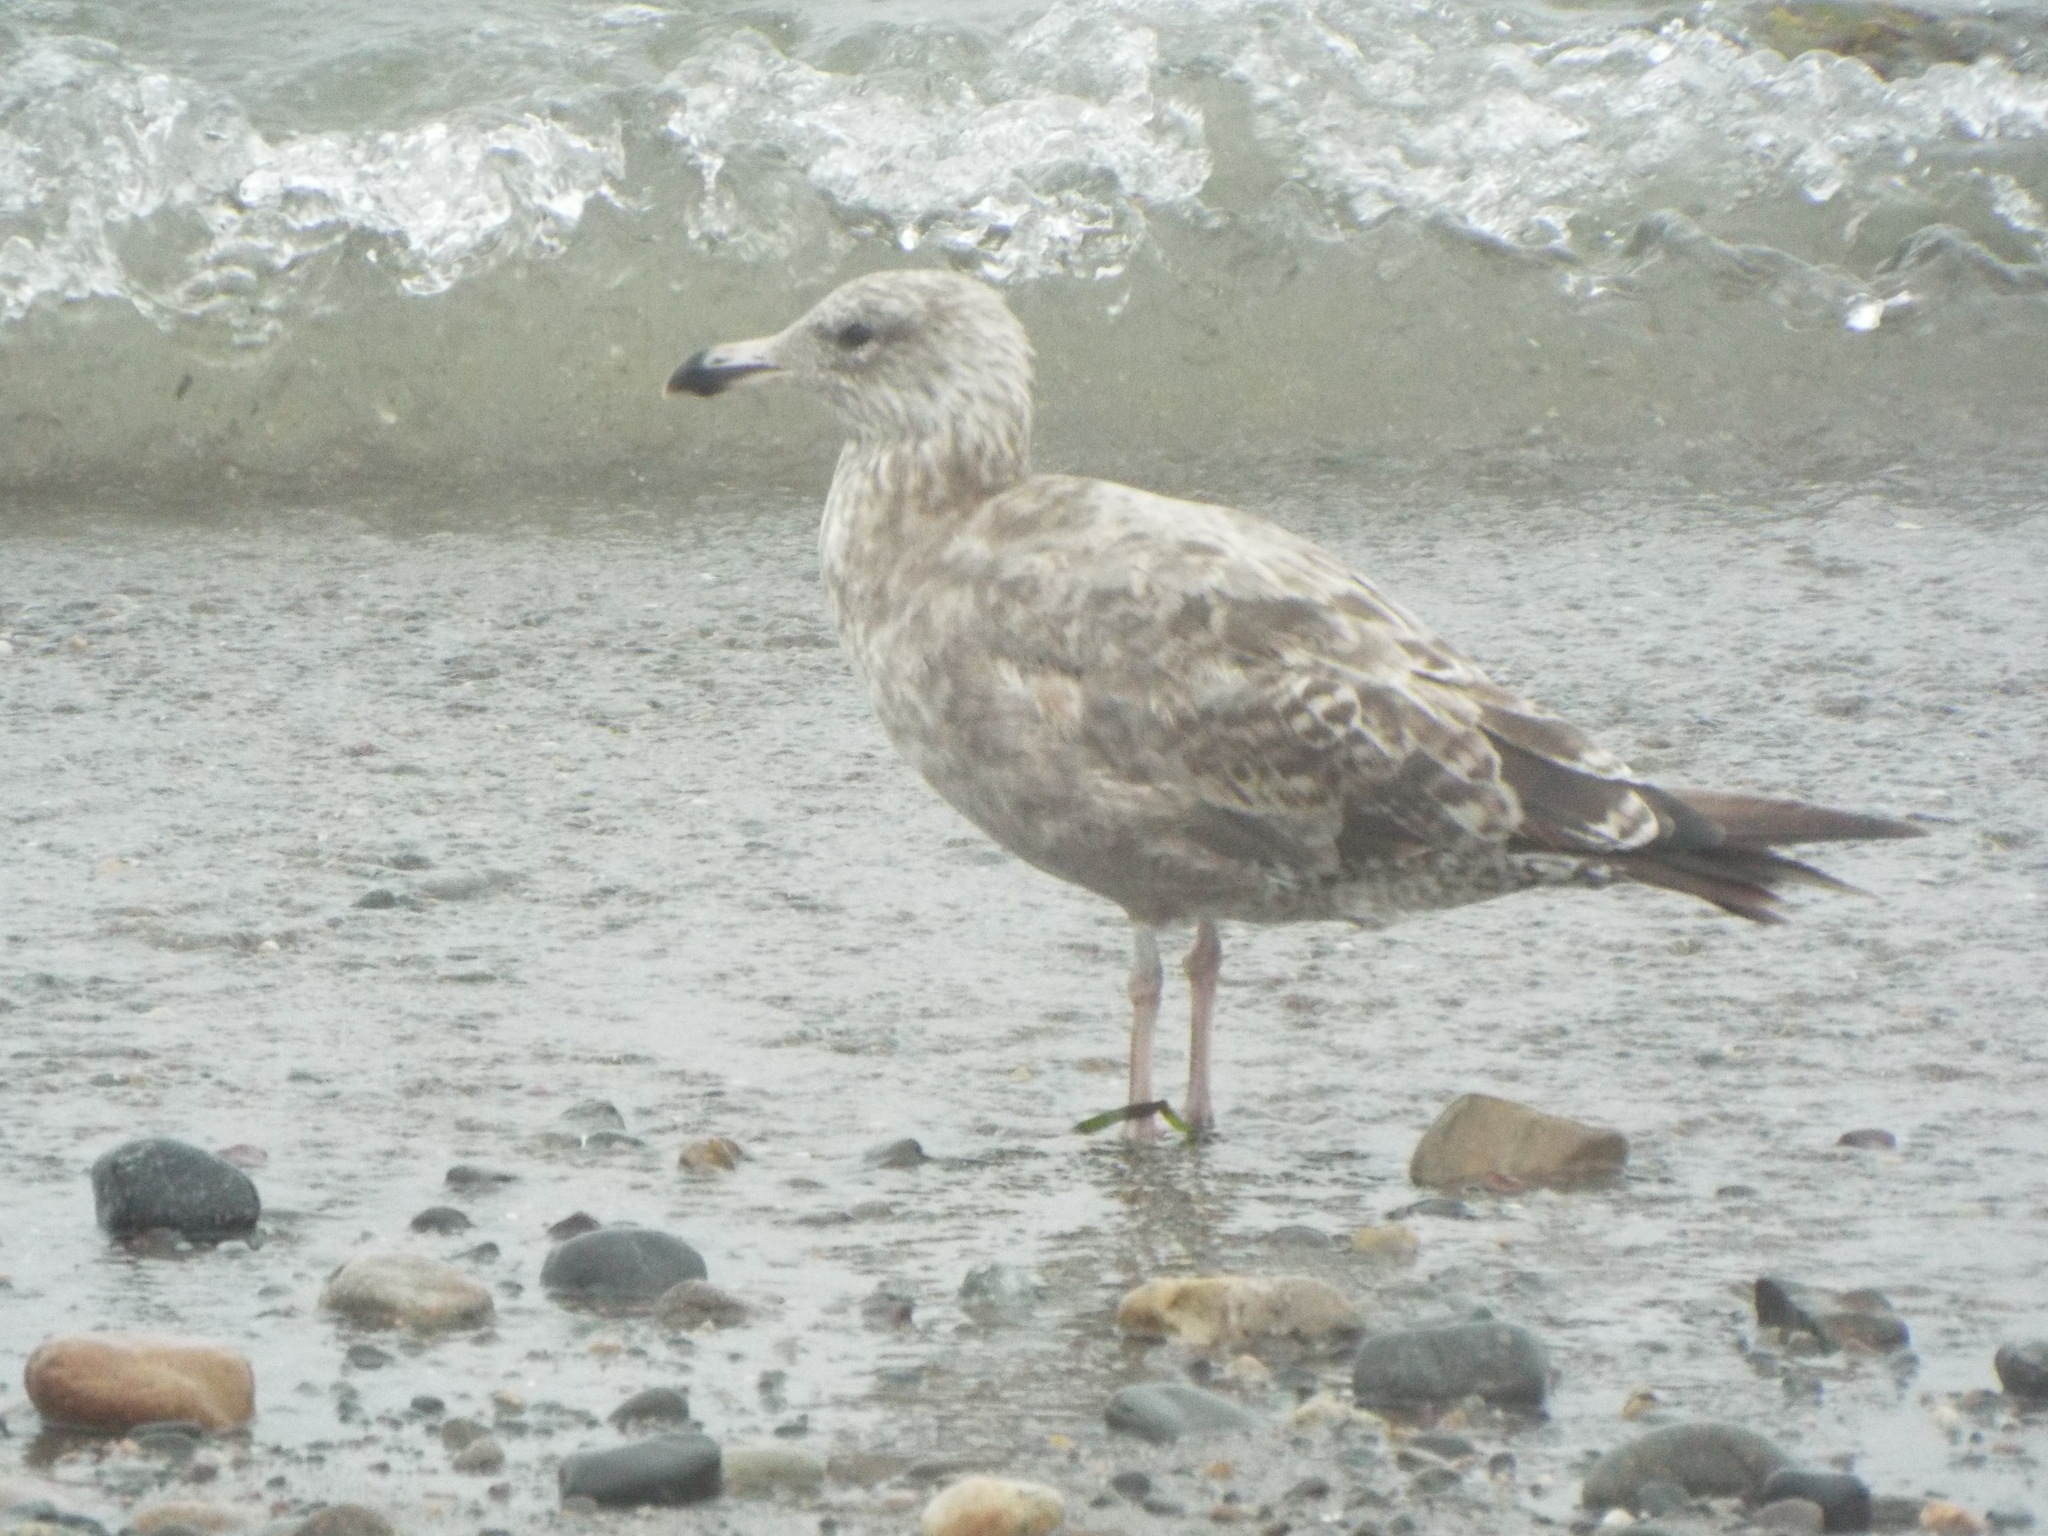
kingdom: Animalia
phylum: Chordata
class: Aves
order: Charadriiformes
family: Laridae
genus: Larus
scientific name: Larus argentatus
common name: Herring gull
